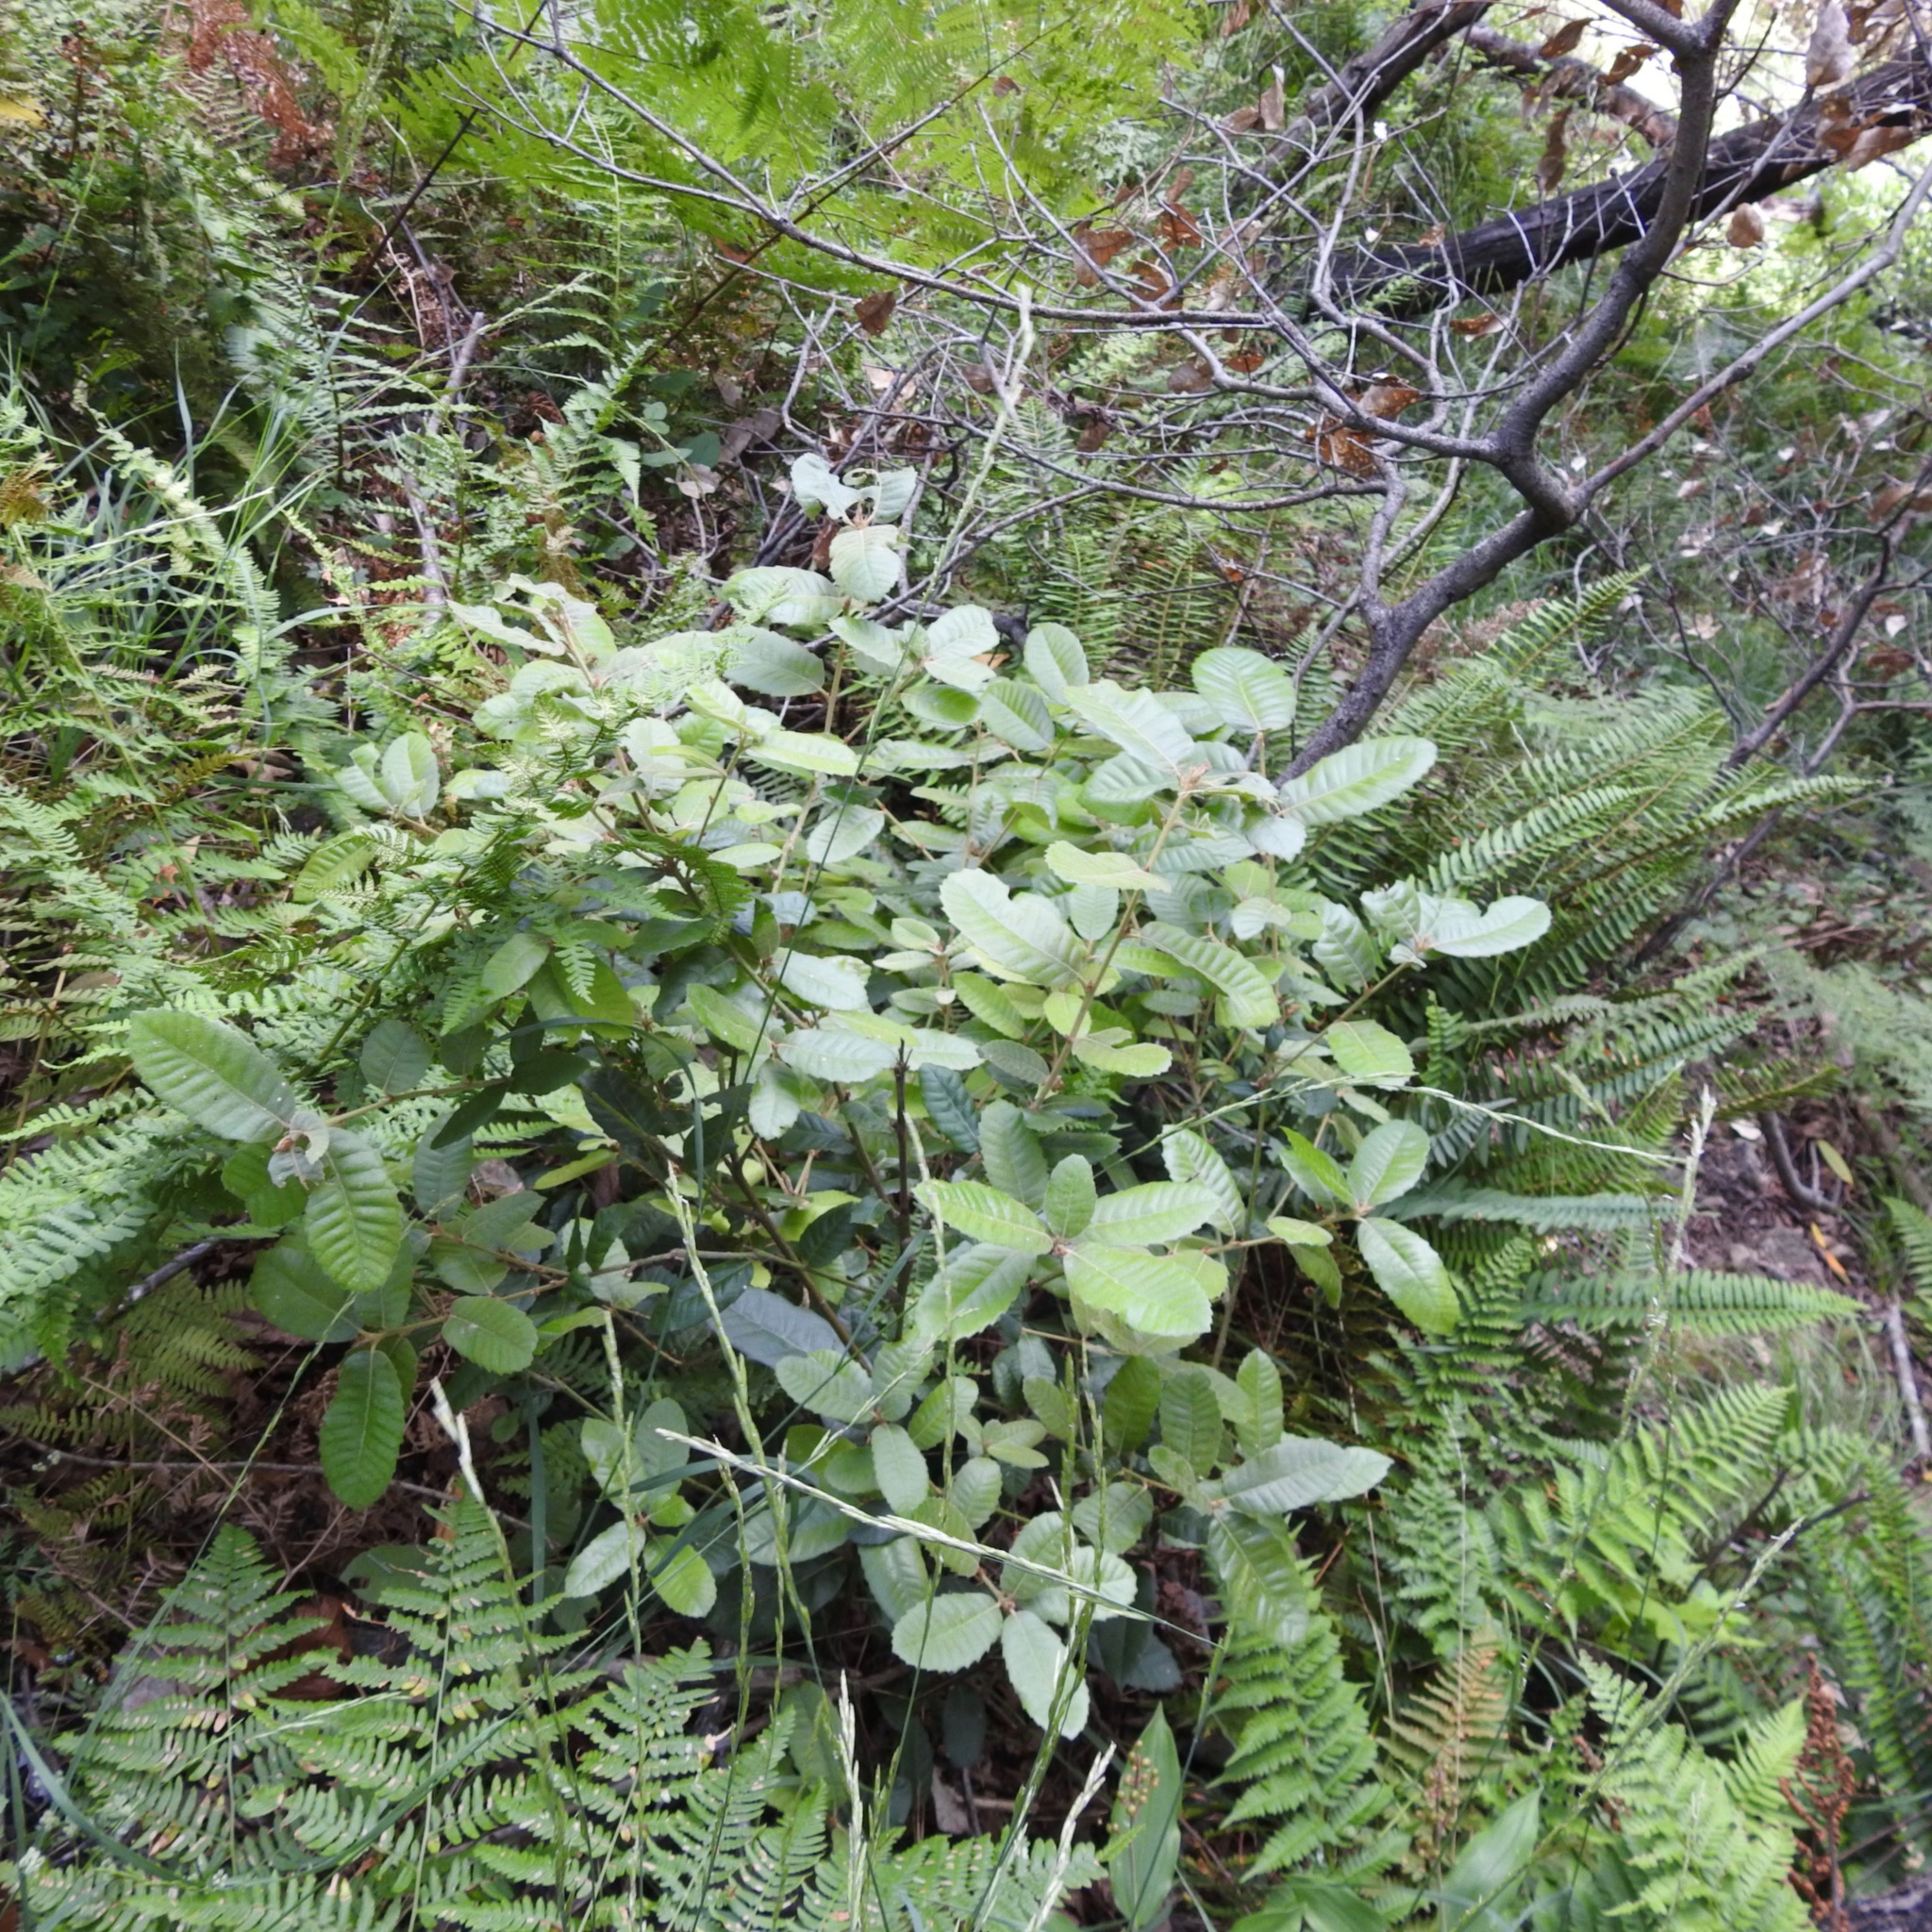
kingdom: Plantae
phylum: Tracheophyta
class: Magnoliopsida
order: Fagales
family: Fagaceae
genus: Notholithocarpus
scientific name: Notholithocarpus densiflorus
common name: Tan bark oak
